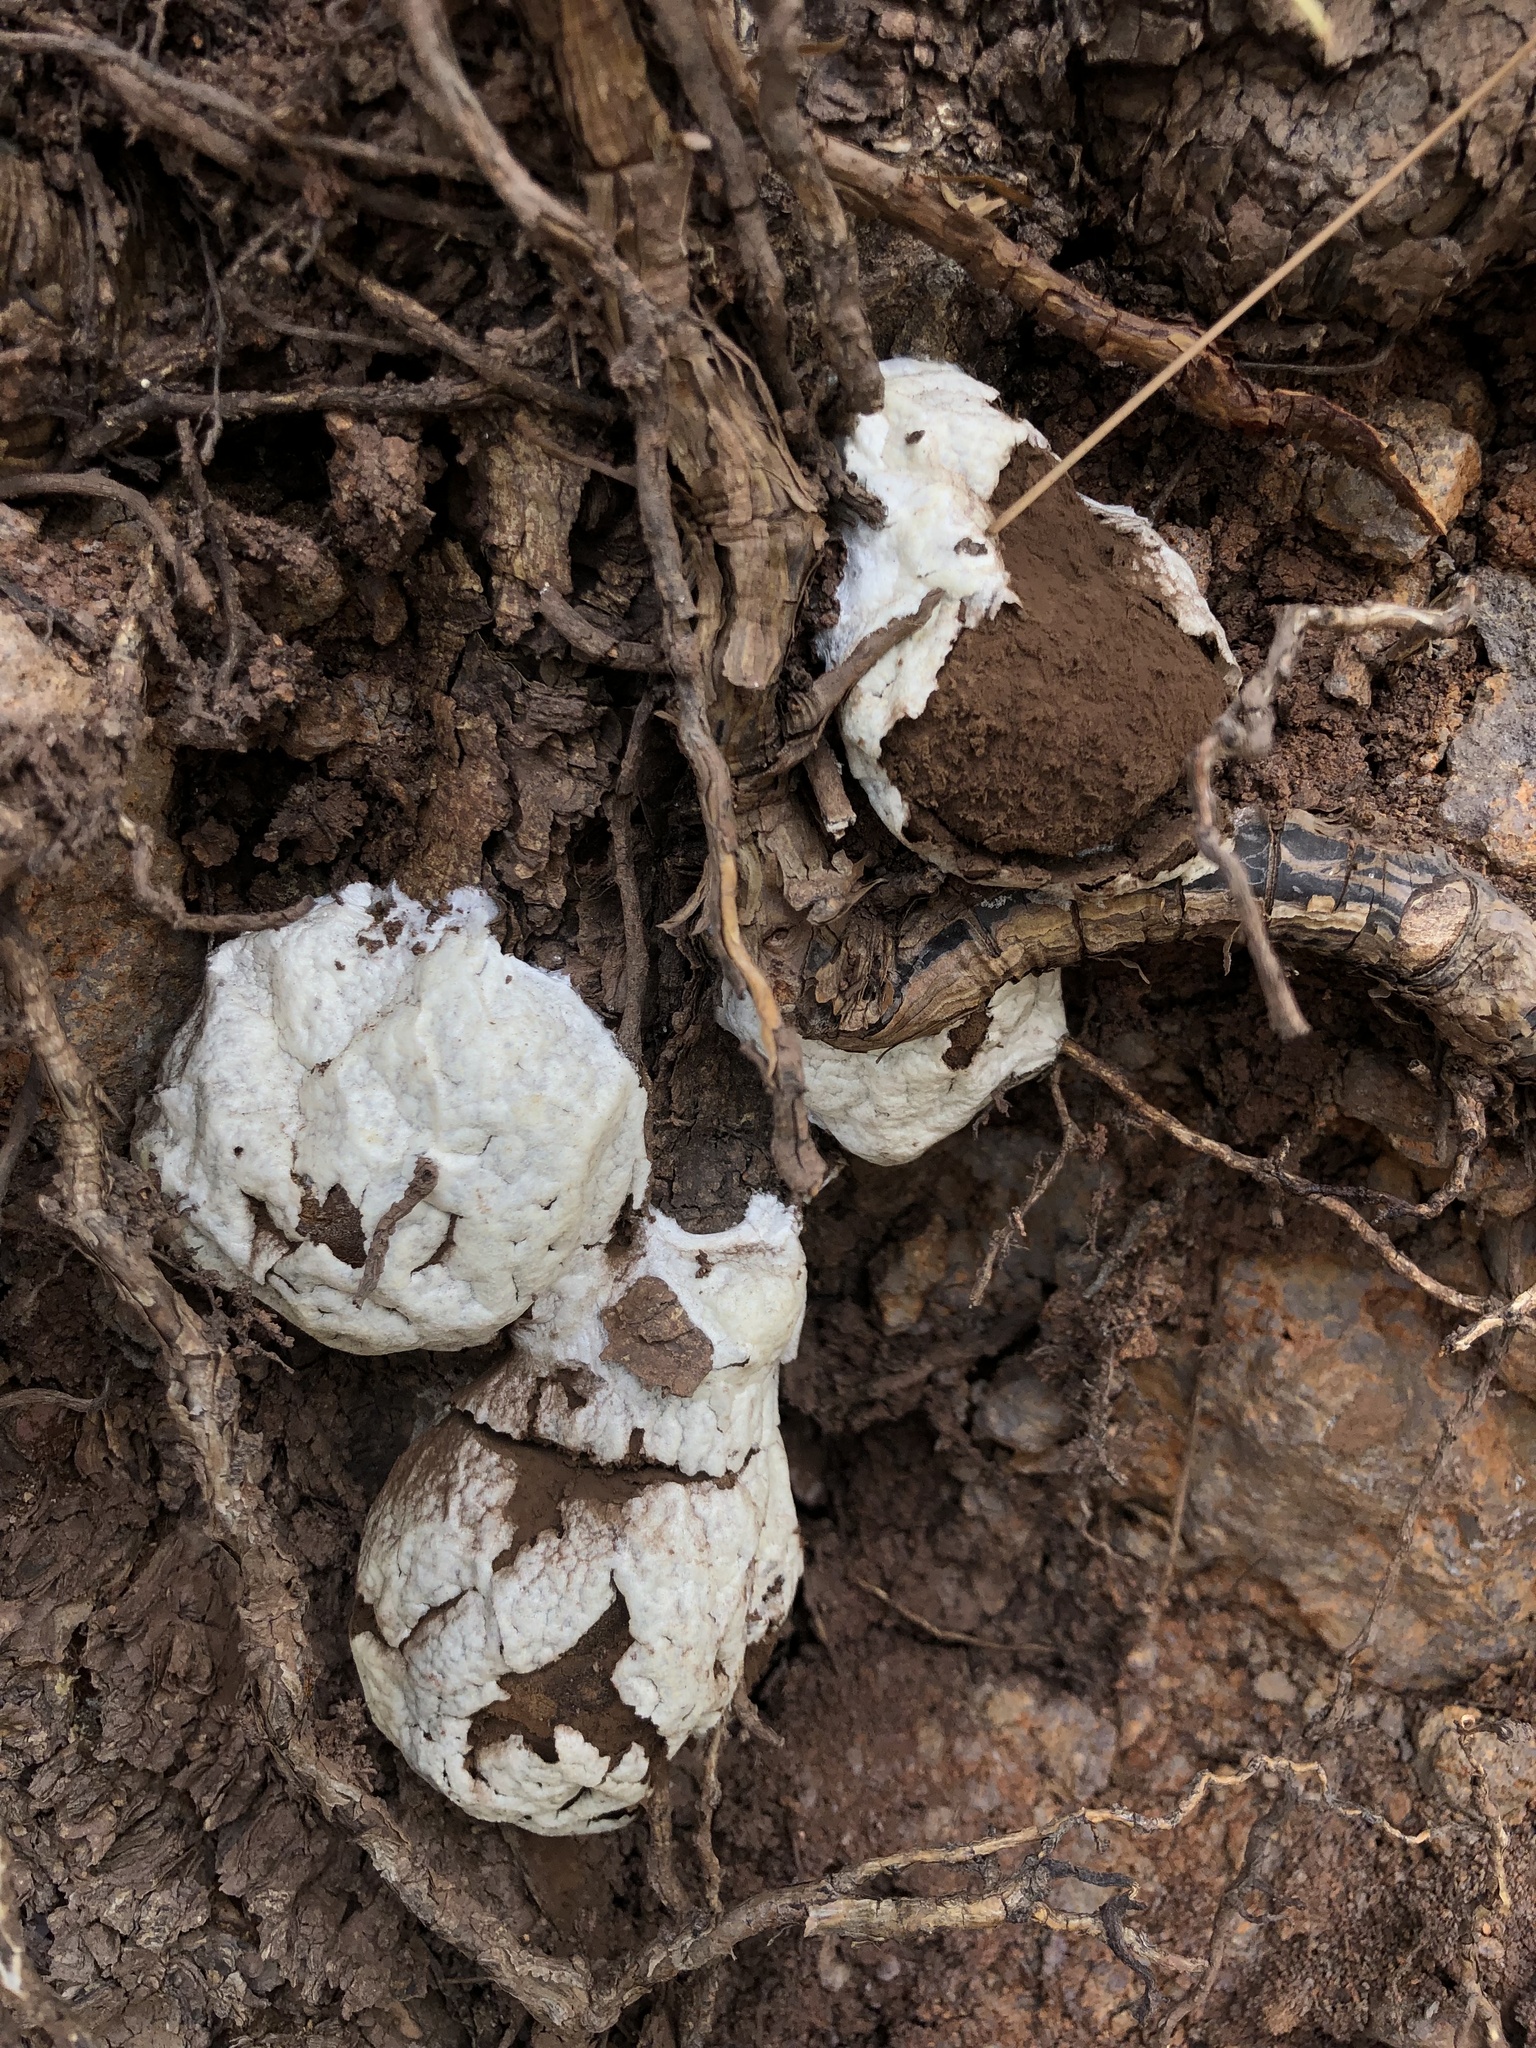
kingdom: Protozoa
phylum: Mycetozoa
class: Myxomycetes
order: Cribrariales
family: Tubiferaceae
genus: Reticularia
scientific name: Reticularia lycoperdon
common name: False puffball
